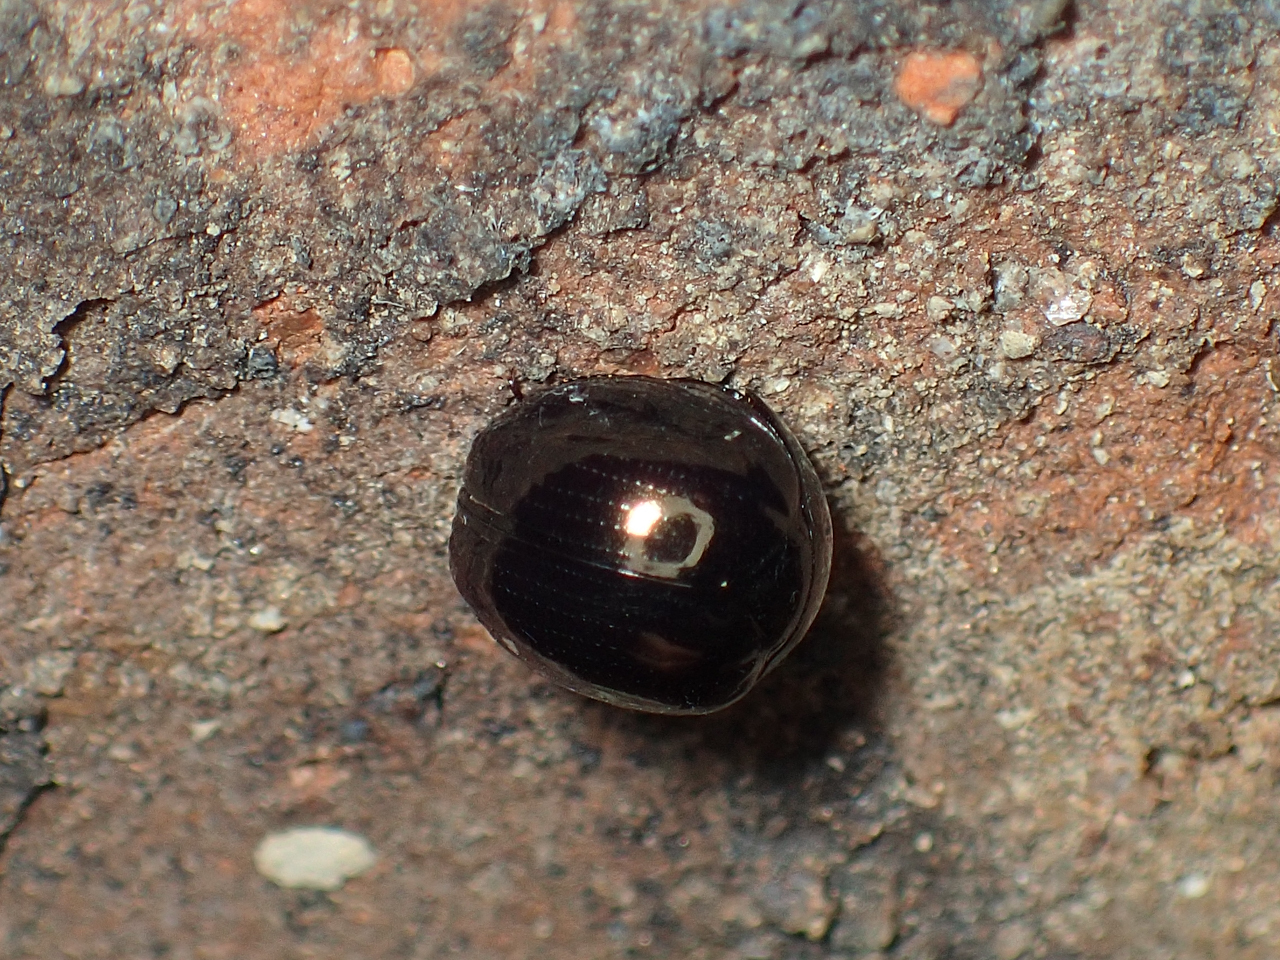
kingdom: Animalia
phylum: Arthropoda
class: Insecta
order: Coleoptera
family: Hybosoridae
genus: Germarostes
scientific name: Germarostes aphodioides
